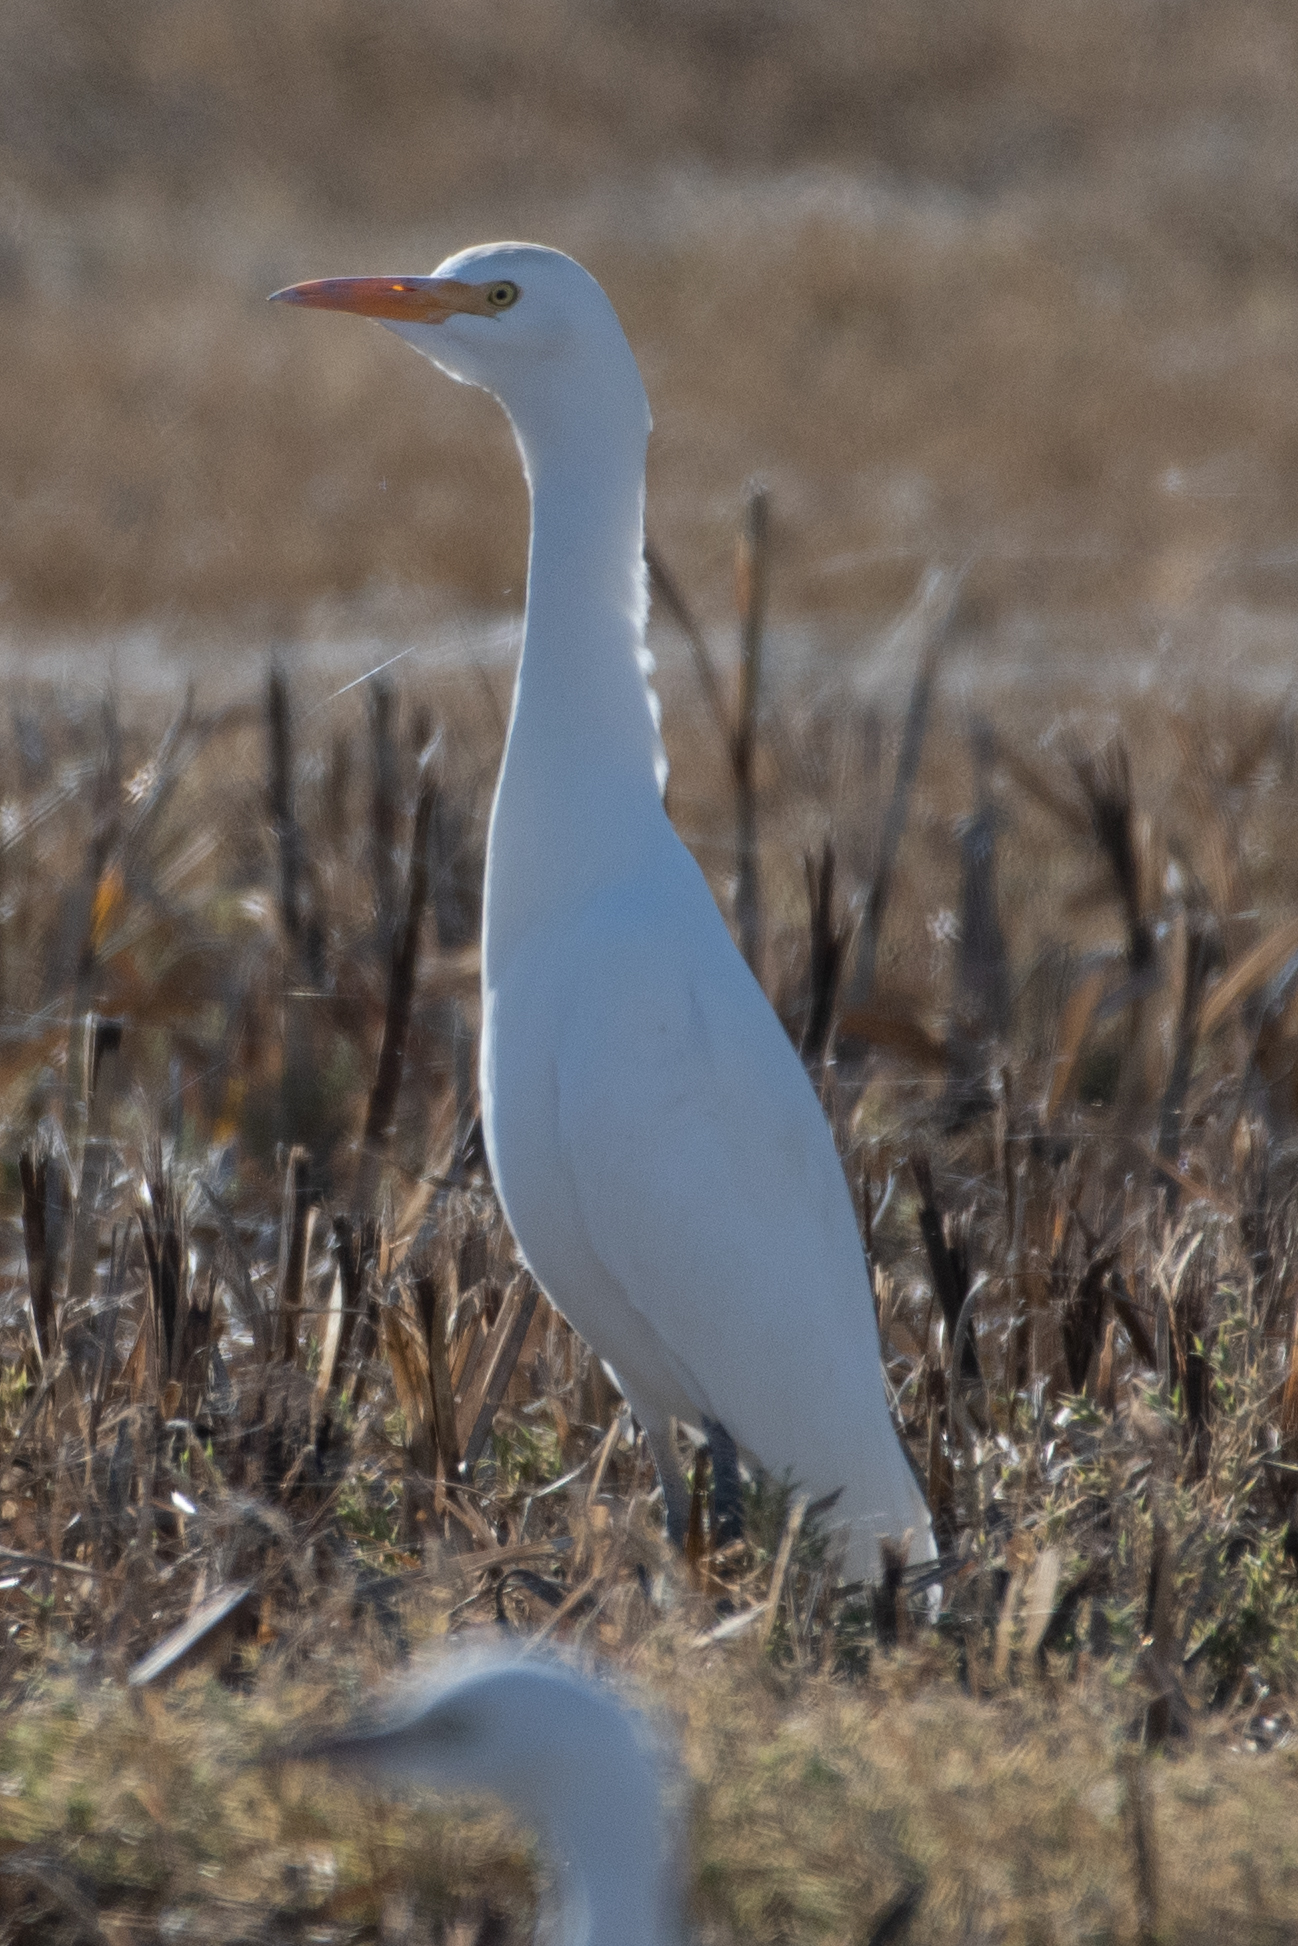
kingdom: Animalia
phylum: Chordata
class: Aves
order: Pelecaniformes
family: Ardeidae
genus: Bubulcus
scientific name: Bubulcus ibis
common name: Cattle egret
